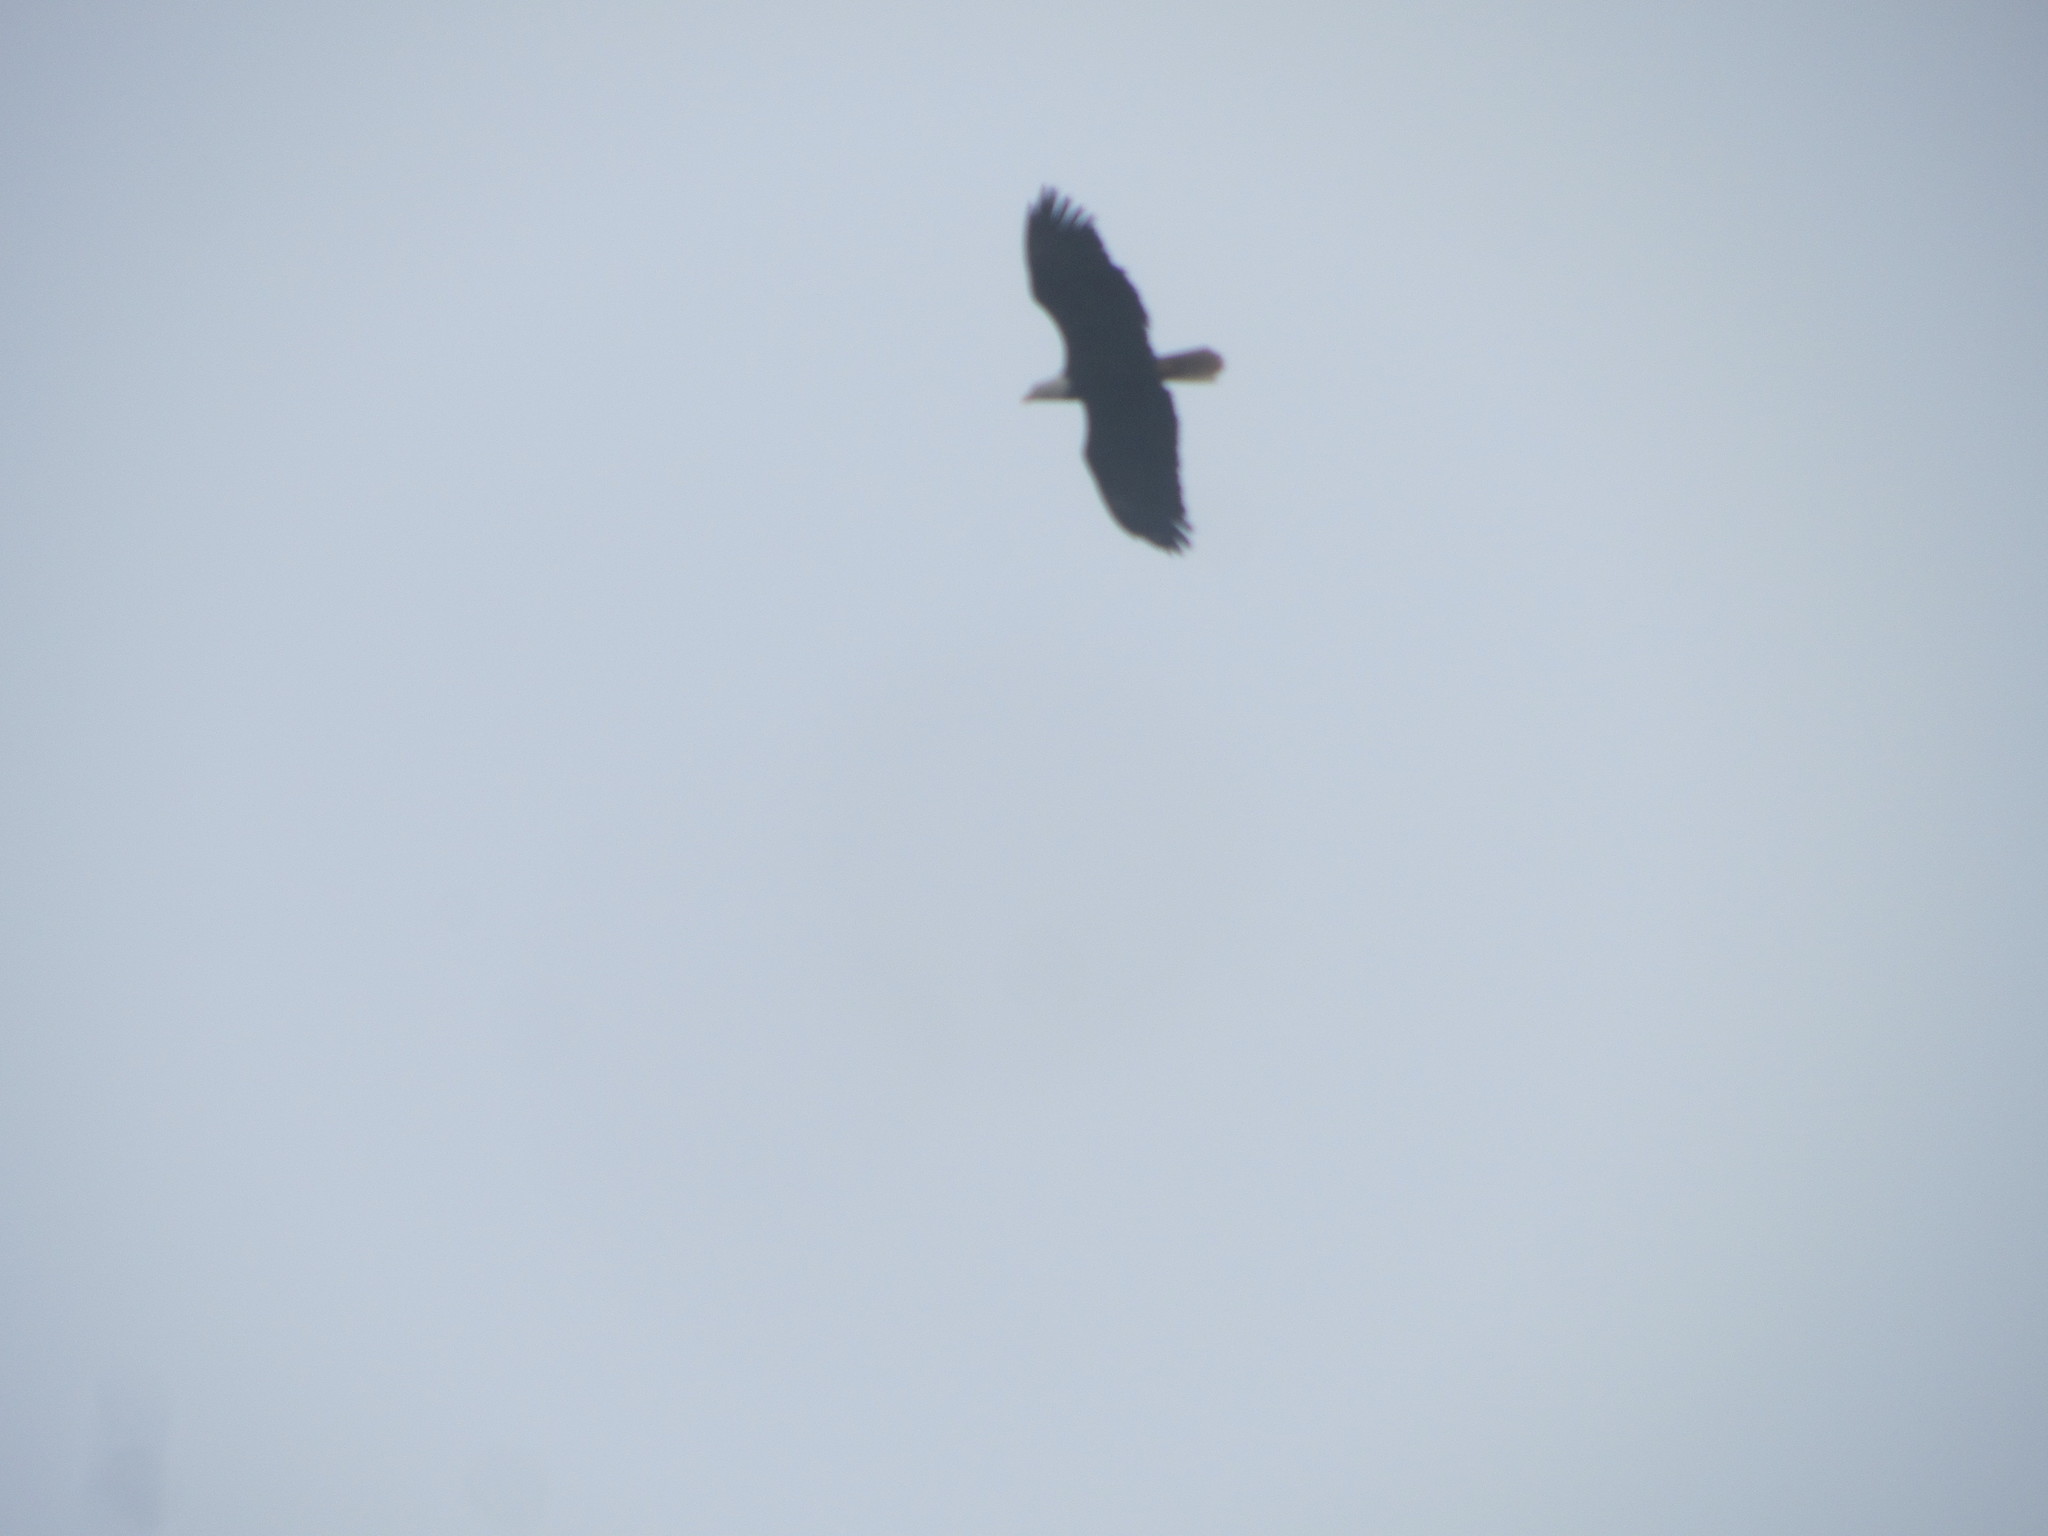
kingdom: Animalia
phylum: Chordata
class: Aves
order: Accipitriformes
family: Accipitridae
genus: Haliaeetus
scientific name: Haliaeetus leucocephalus
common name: Bald eagle
